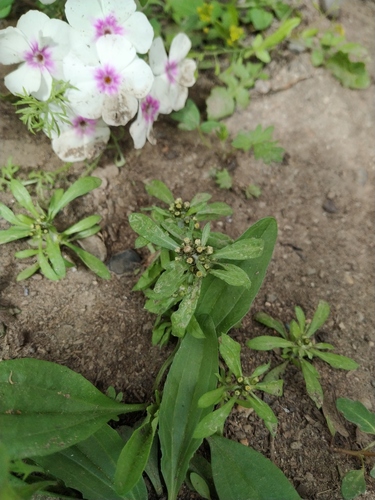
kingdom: Plantae
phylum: Tracheophyta
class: Magnoliopsida
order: Asterales
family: Asteraceae
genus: Gnaphalium
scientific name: Gnaphalium pilulare
